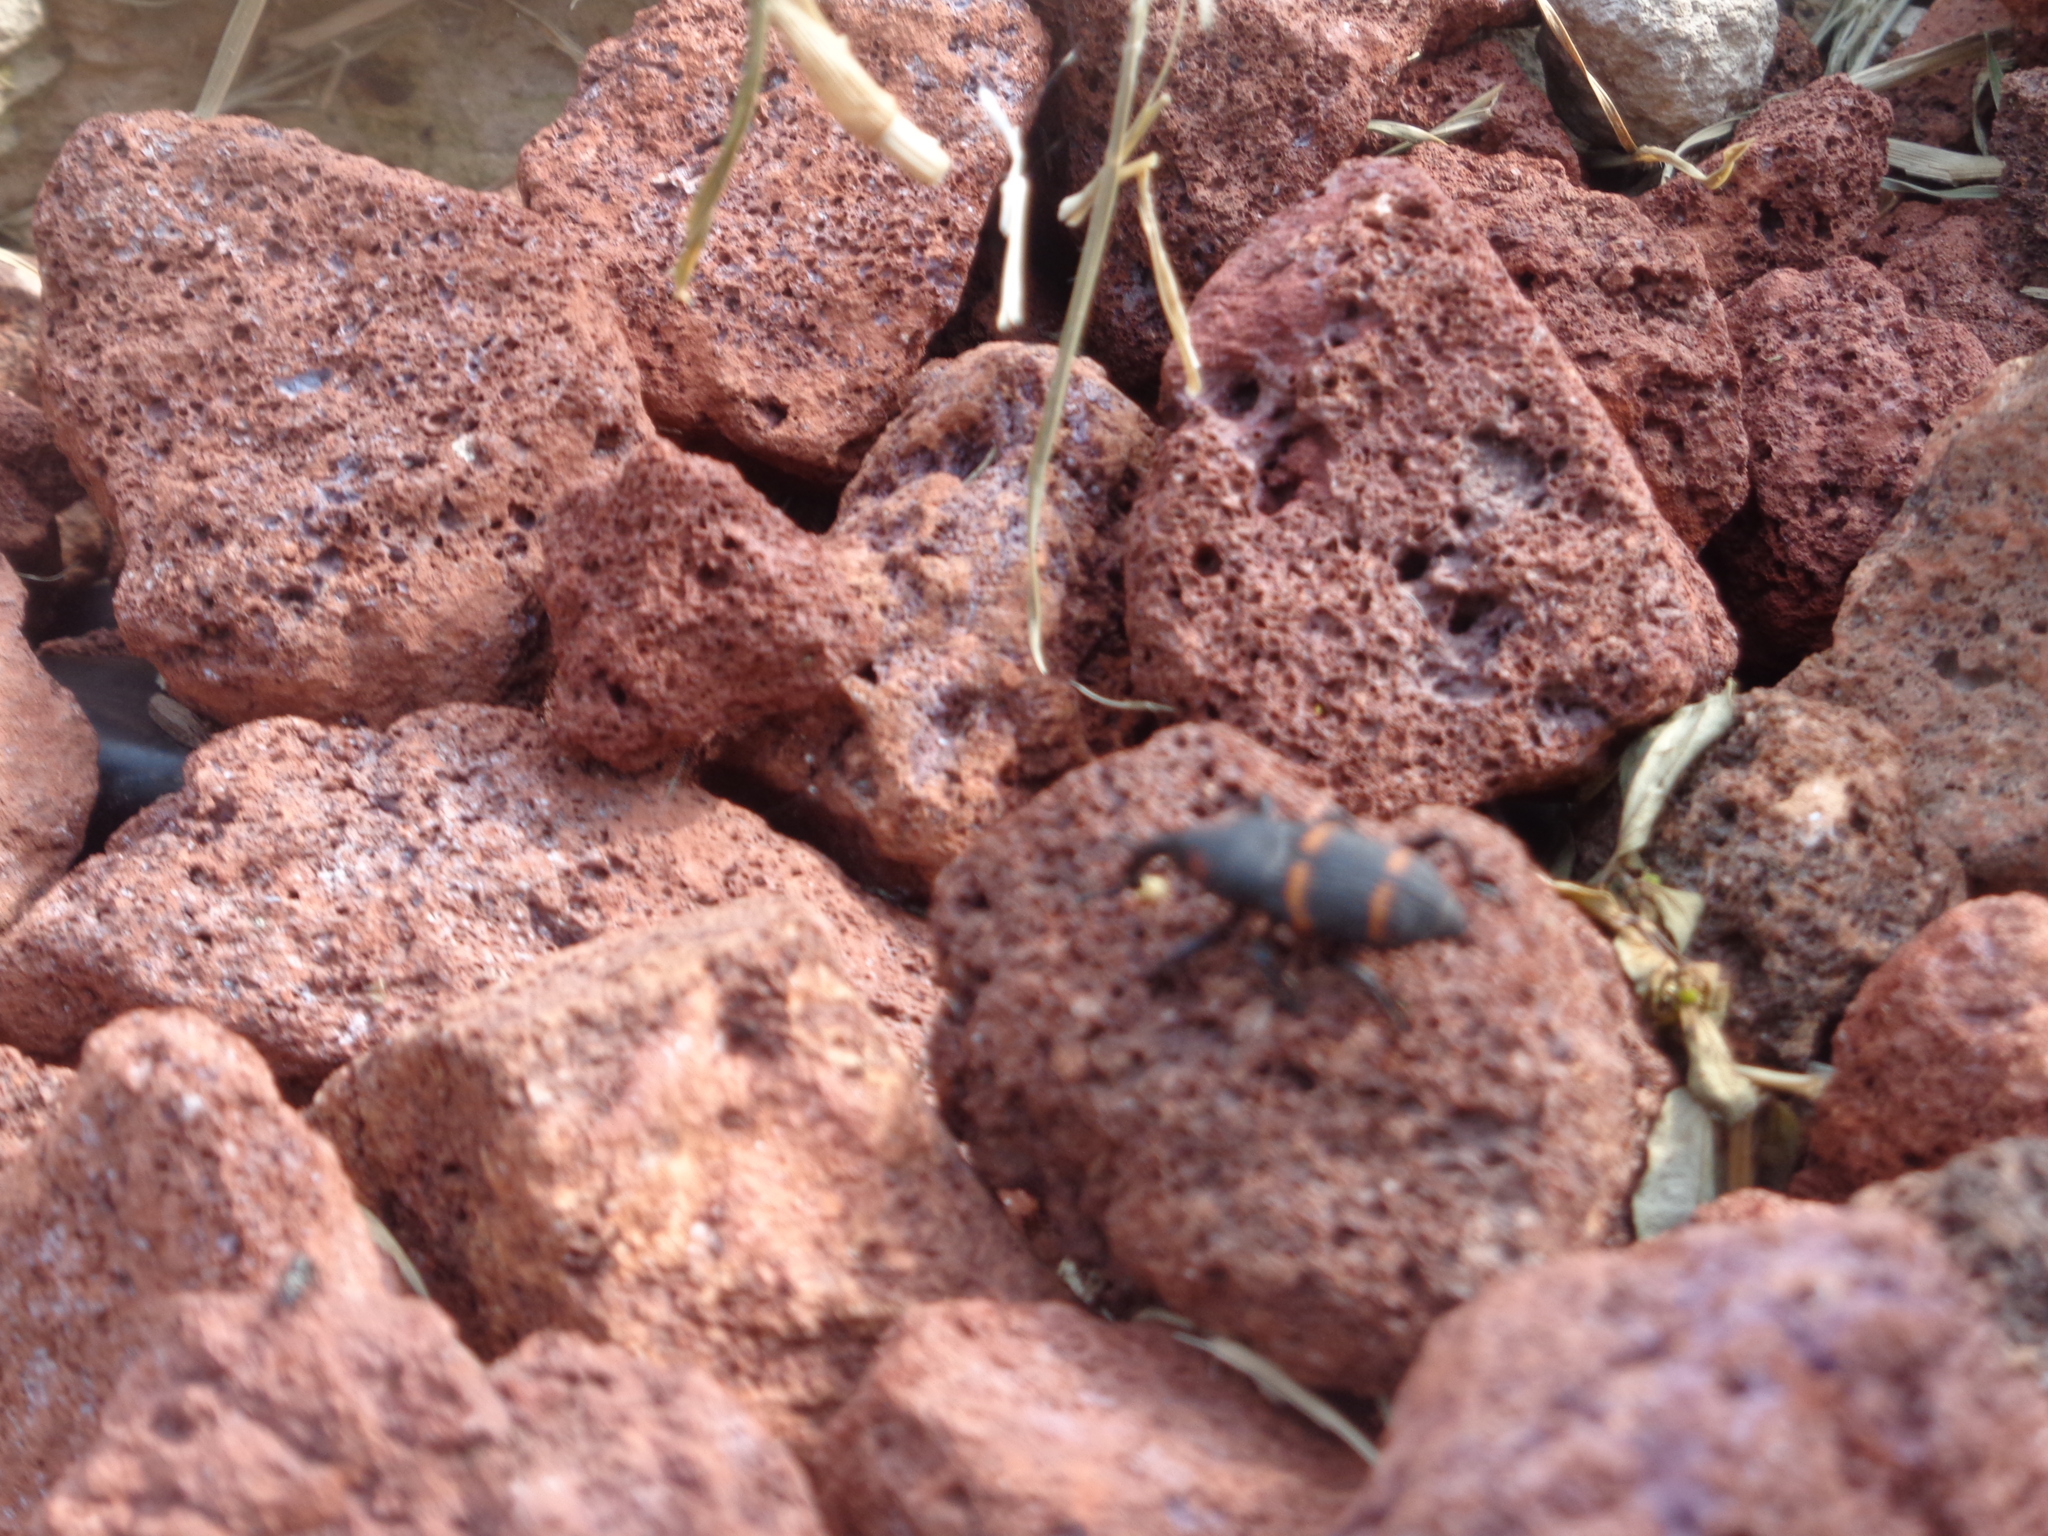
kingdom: Animalia
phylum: Arthropoda
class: Insecta
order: Coleoptera
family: Dryophthoridae
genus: Cactophagus
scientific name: Cactophagus spinolae
